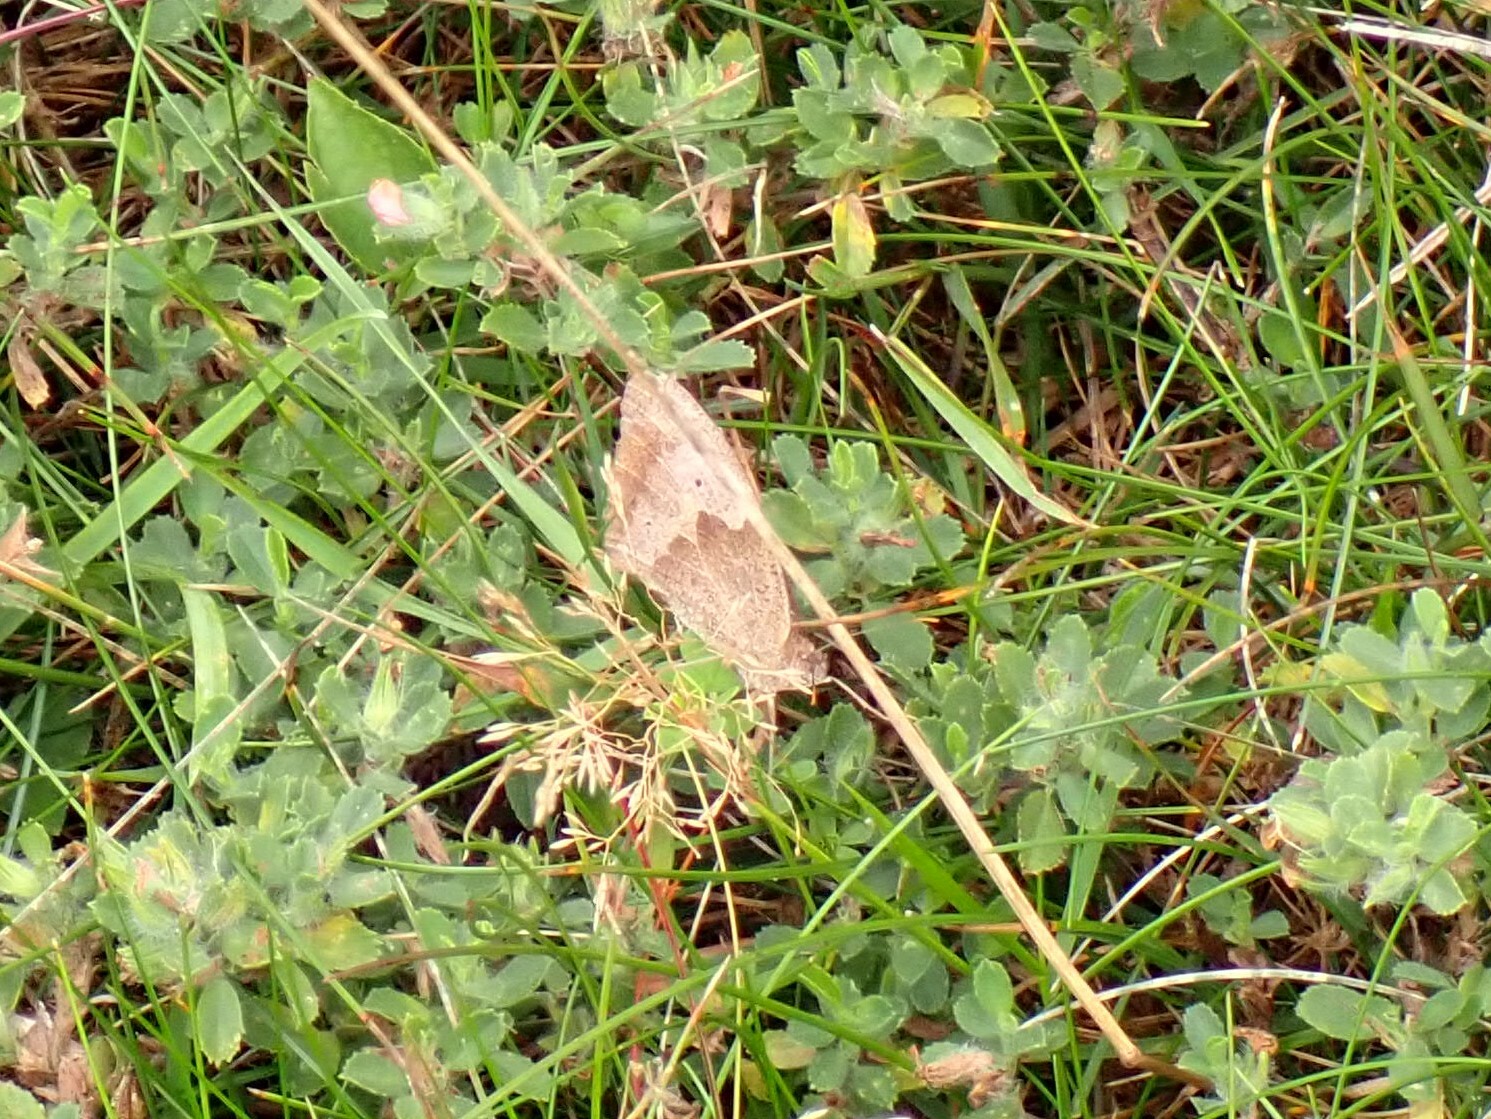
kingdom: Animalia
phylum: Arthropoda
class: Insecta
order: Lepidoptera
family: Nymphalidae
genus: Maniola
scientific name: Maniola jurtina
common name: Meadow brown
